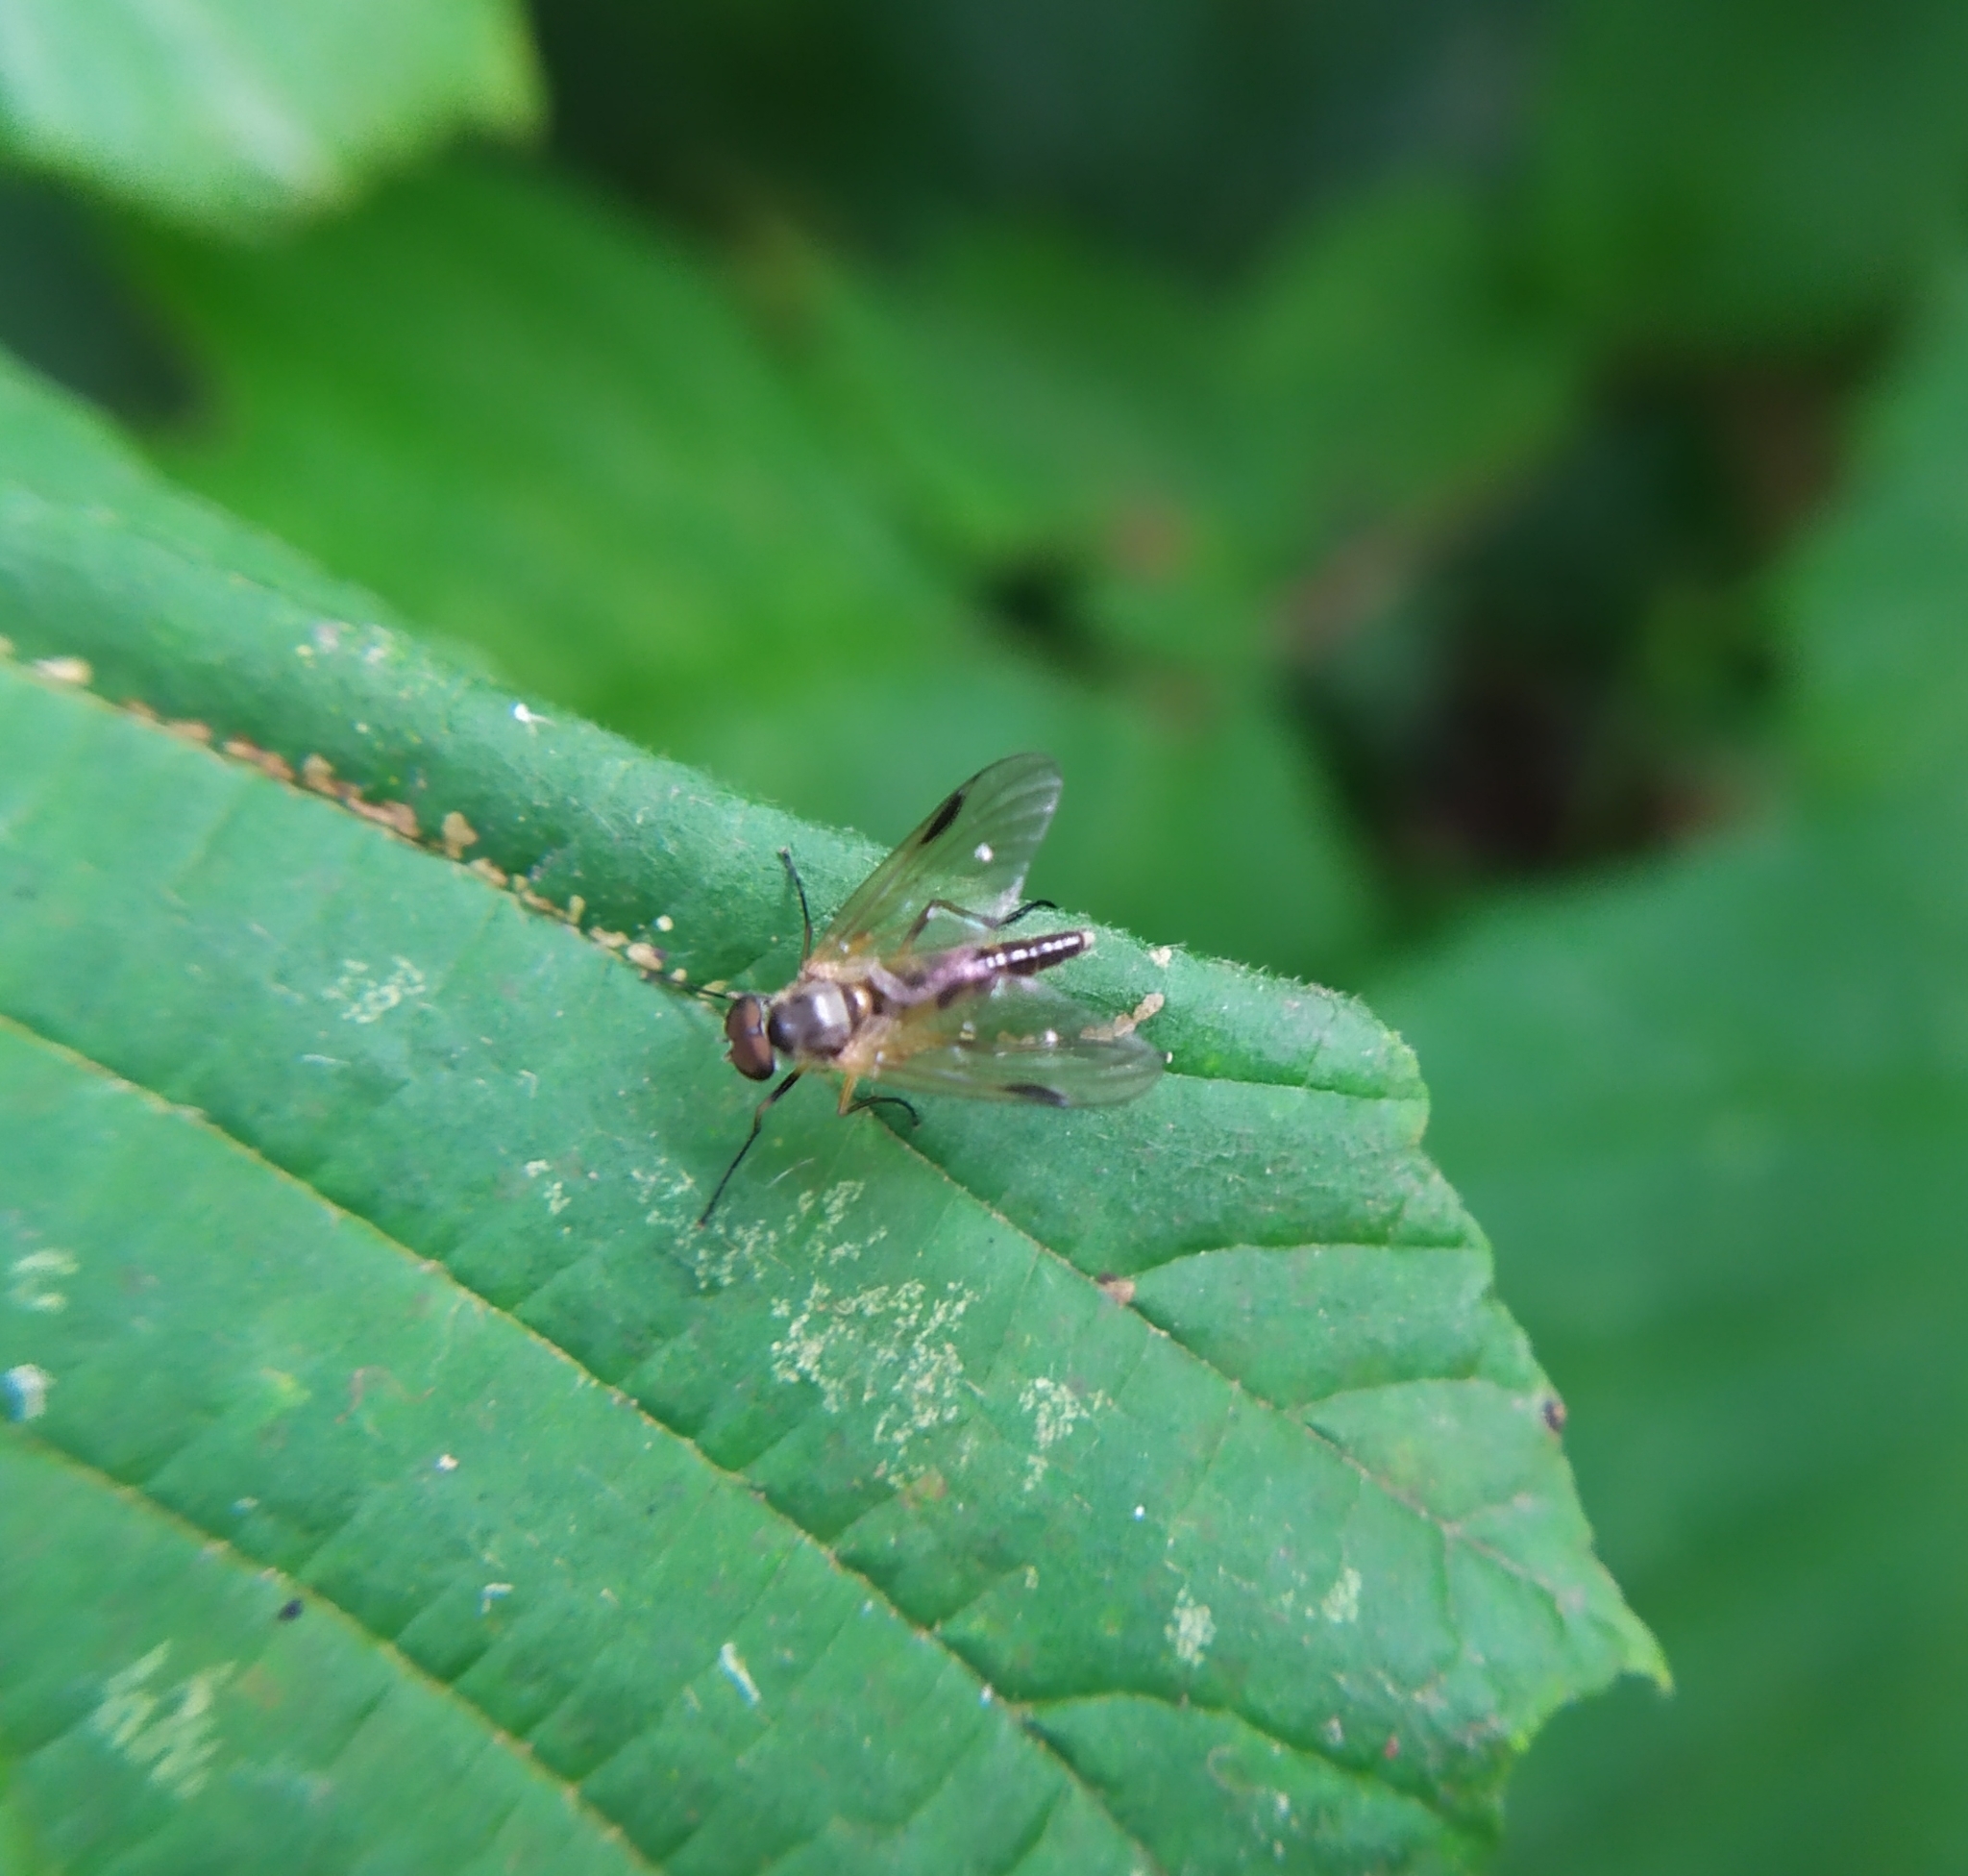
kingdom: Animalia
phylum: Arthropoda
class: Insecta
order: Diptera
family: Rhagionidae
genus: Rhagio
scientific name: Rhagio lineola
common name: Small fleck-winged snipefly
